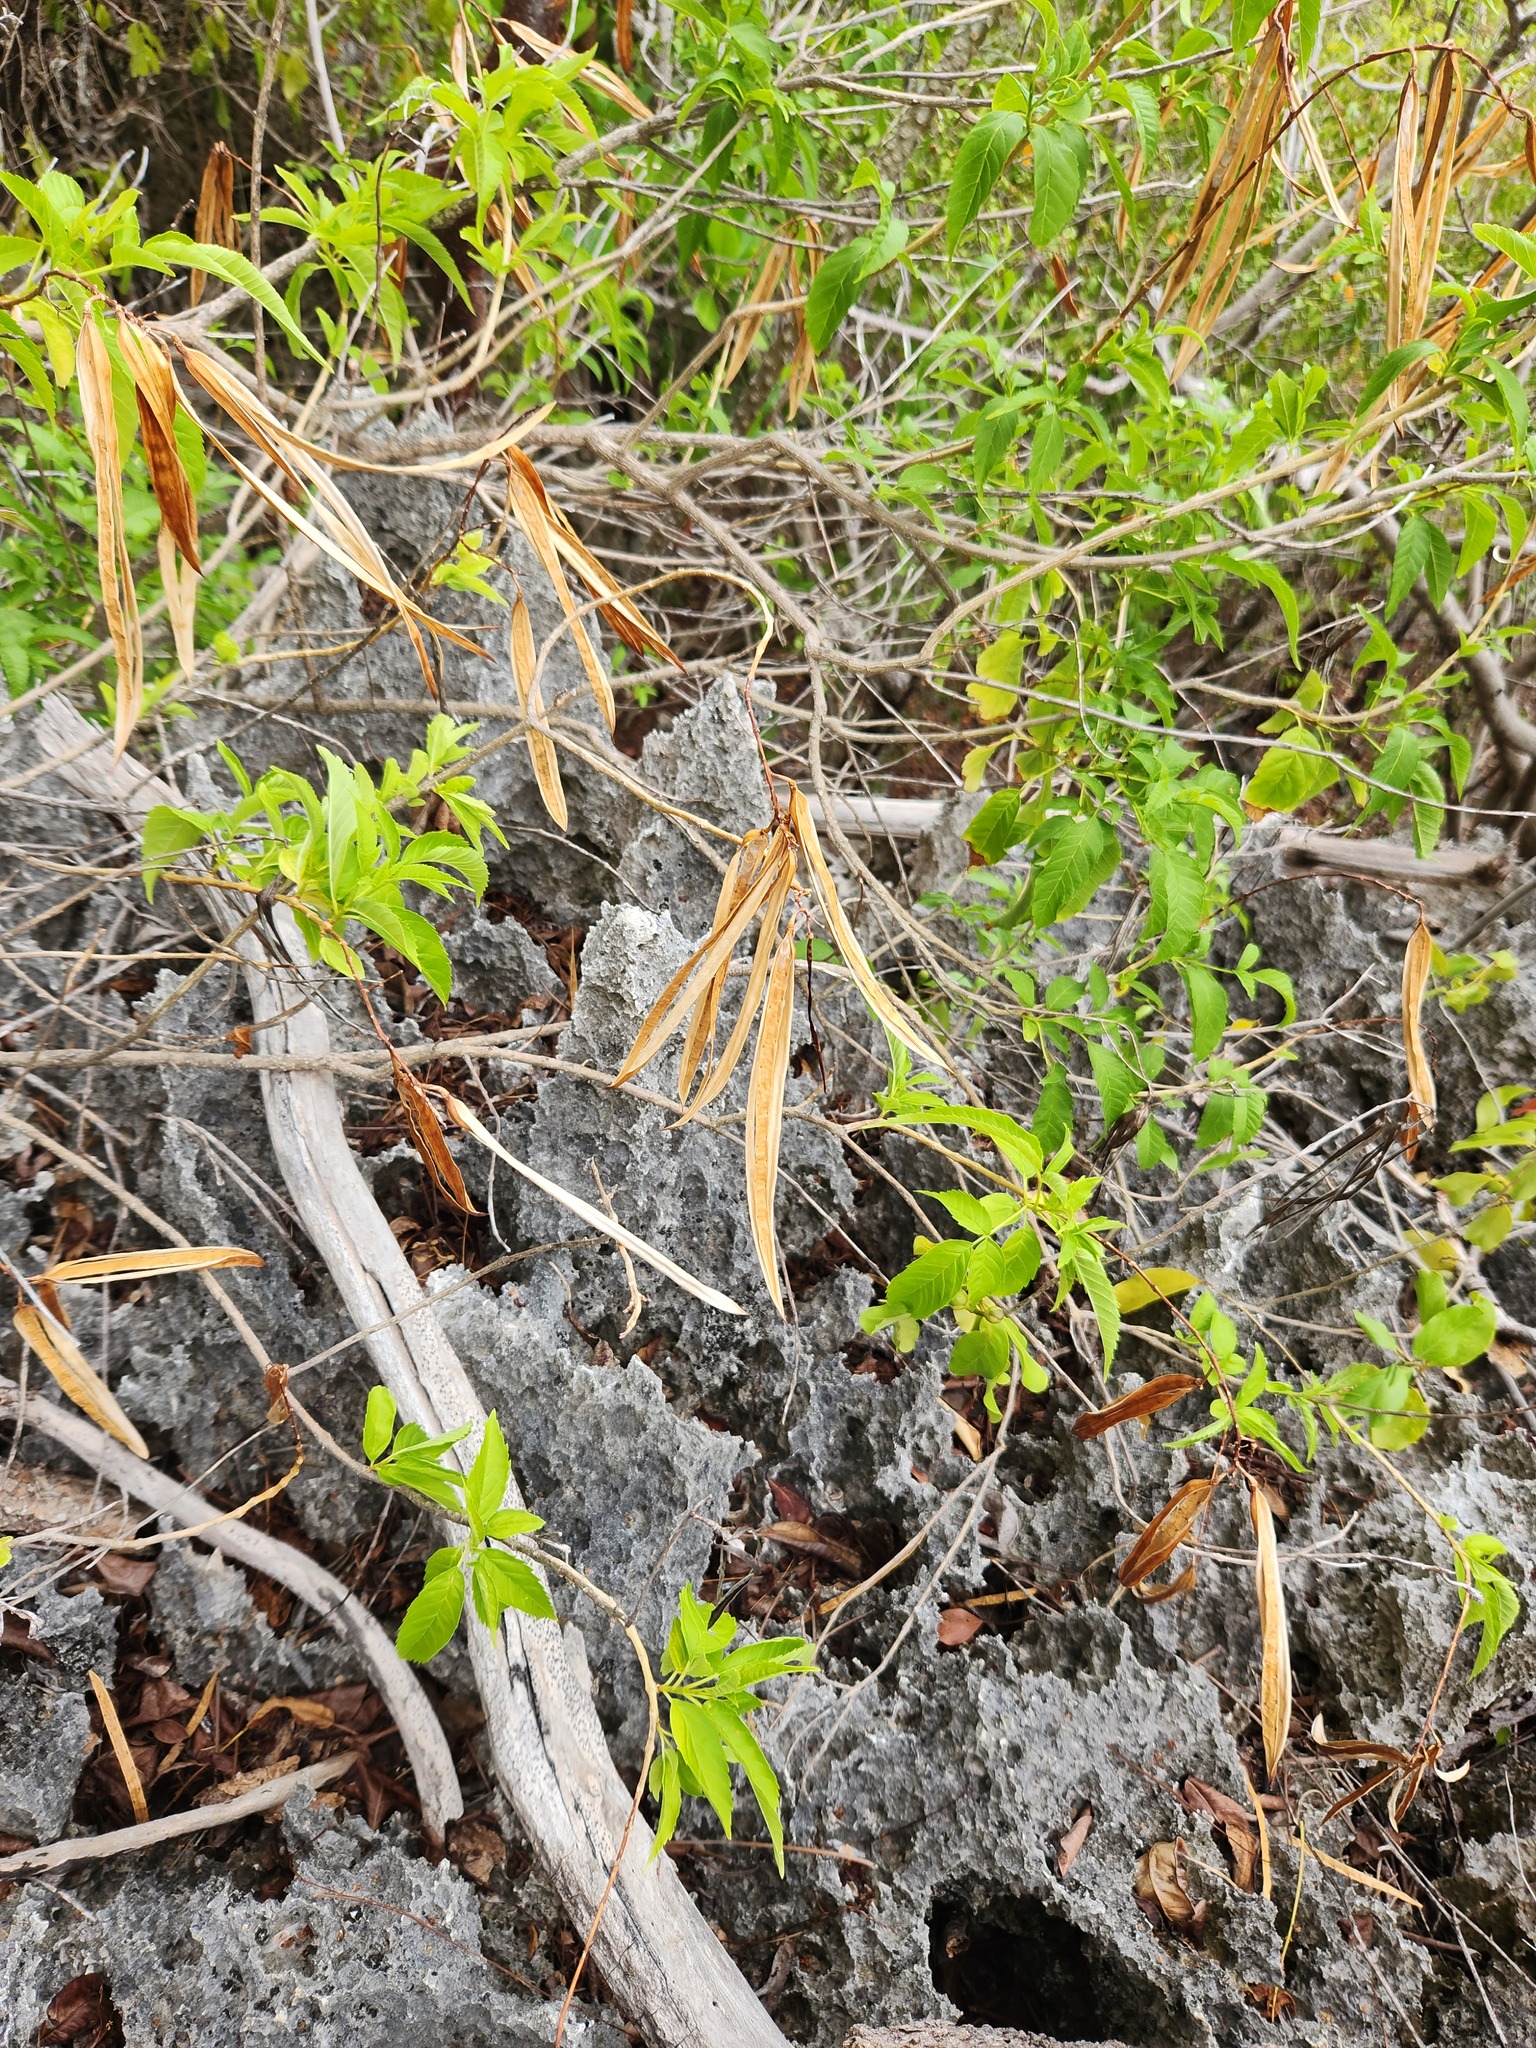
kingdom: Plantae
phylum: Tracheophyta
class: Magnoliopsida
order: Lamiales
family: Bignoniaceae
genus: Tecoma
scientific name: Tecoma stans
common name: Yellow trumpetbush
